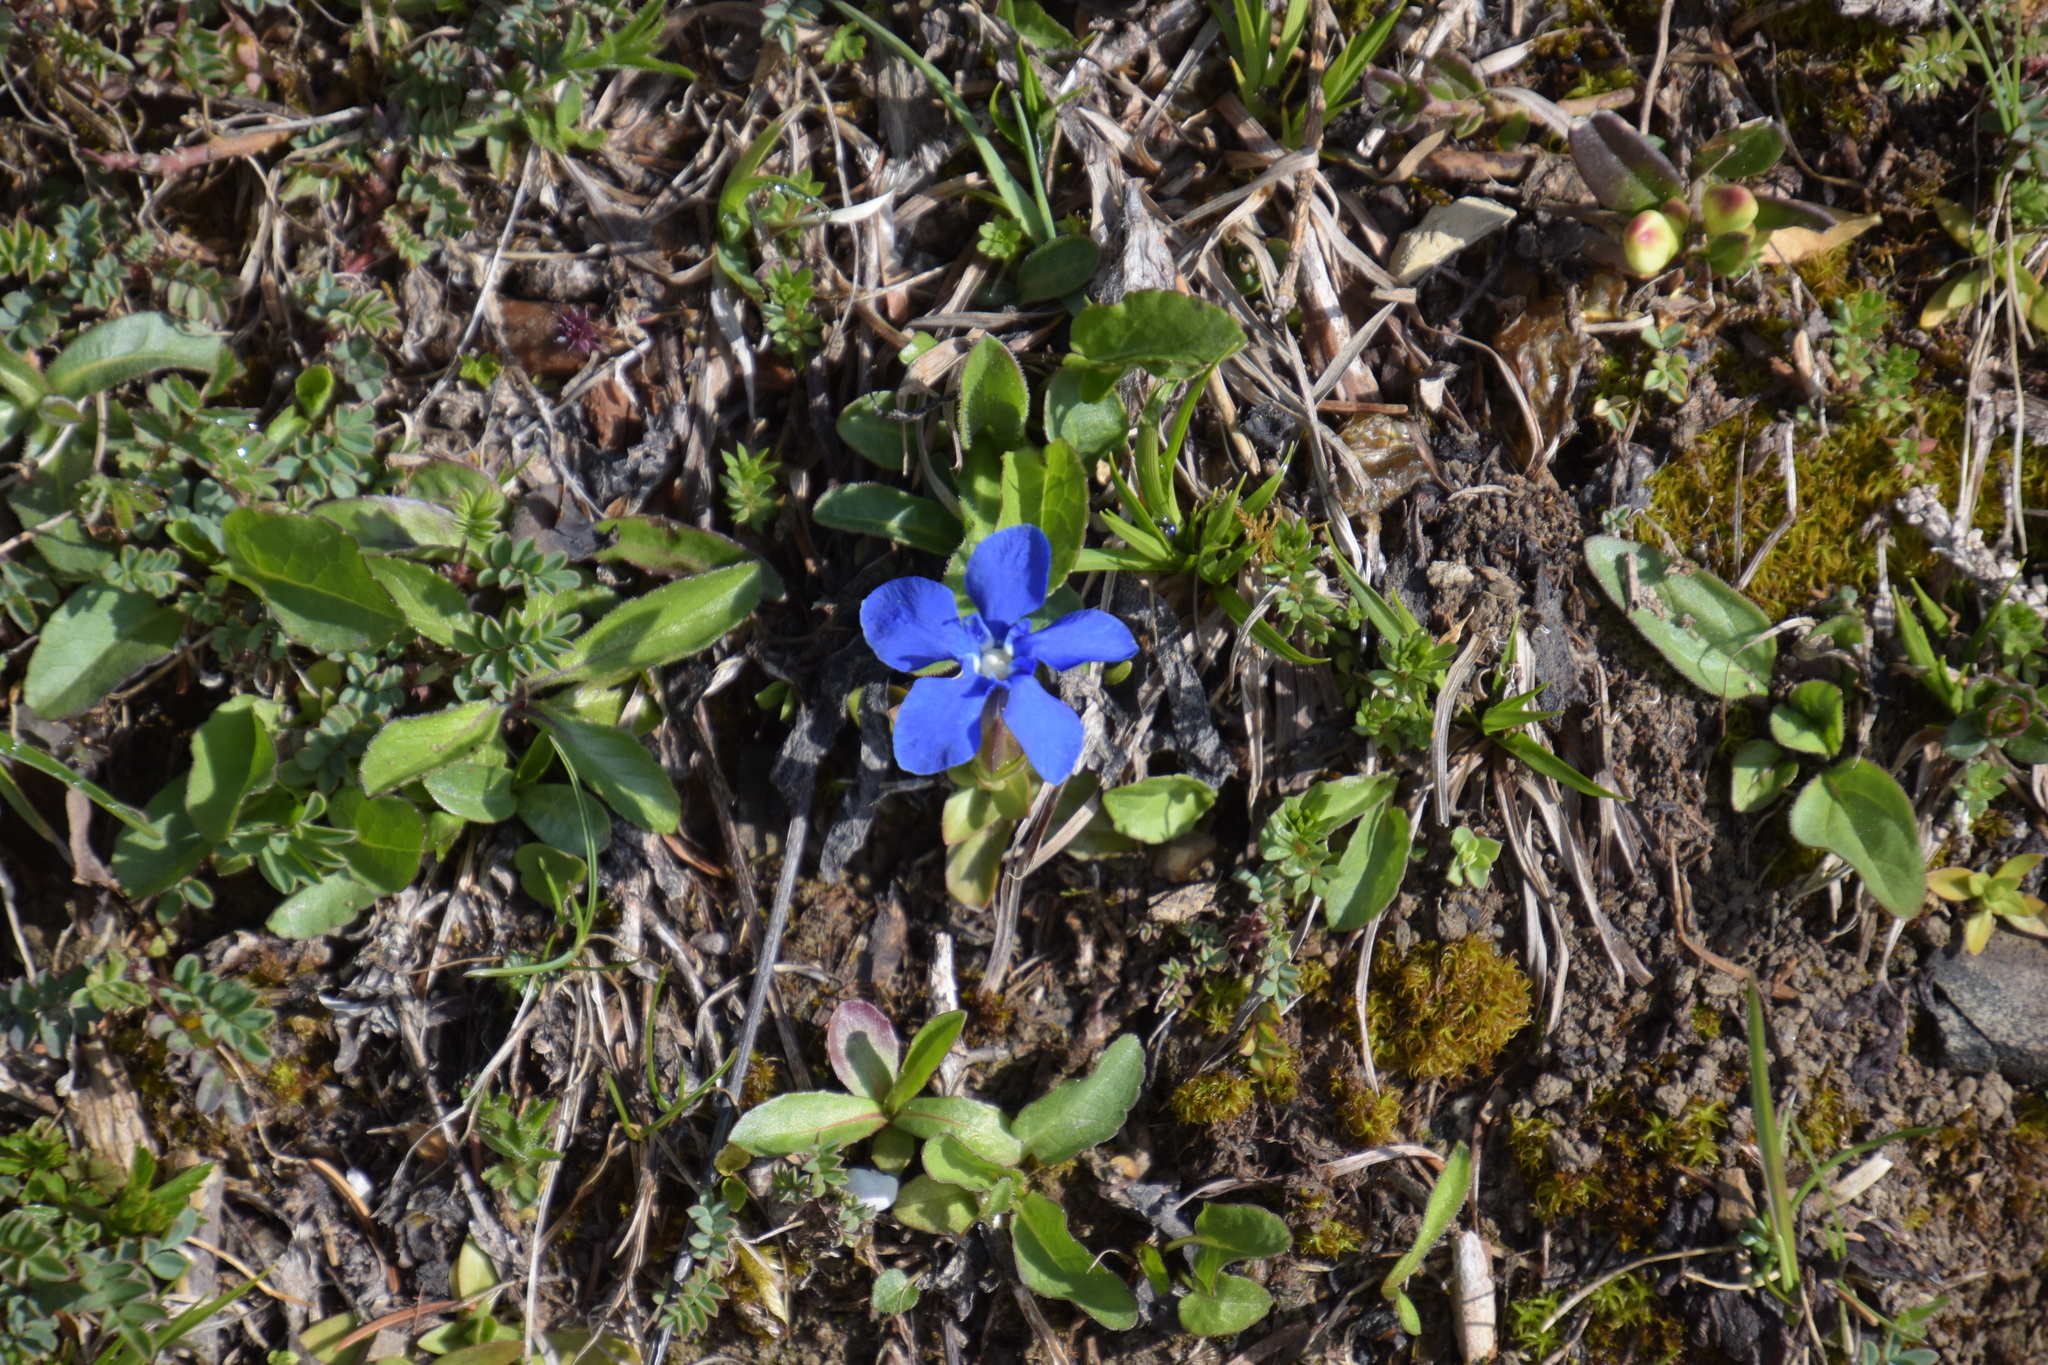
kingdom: Plantae
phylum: Tracheophyta
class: Magnoliopsida
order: Gentianales
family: Gentianaceae
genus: Gentiana
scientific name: Gentiana verna
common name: Spring gentian
